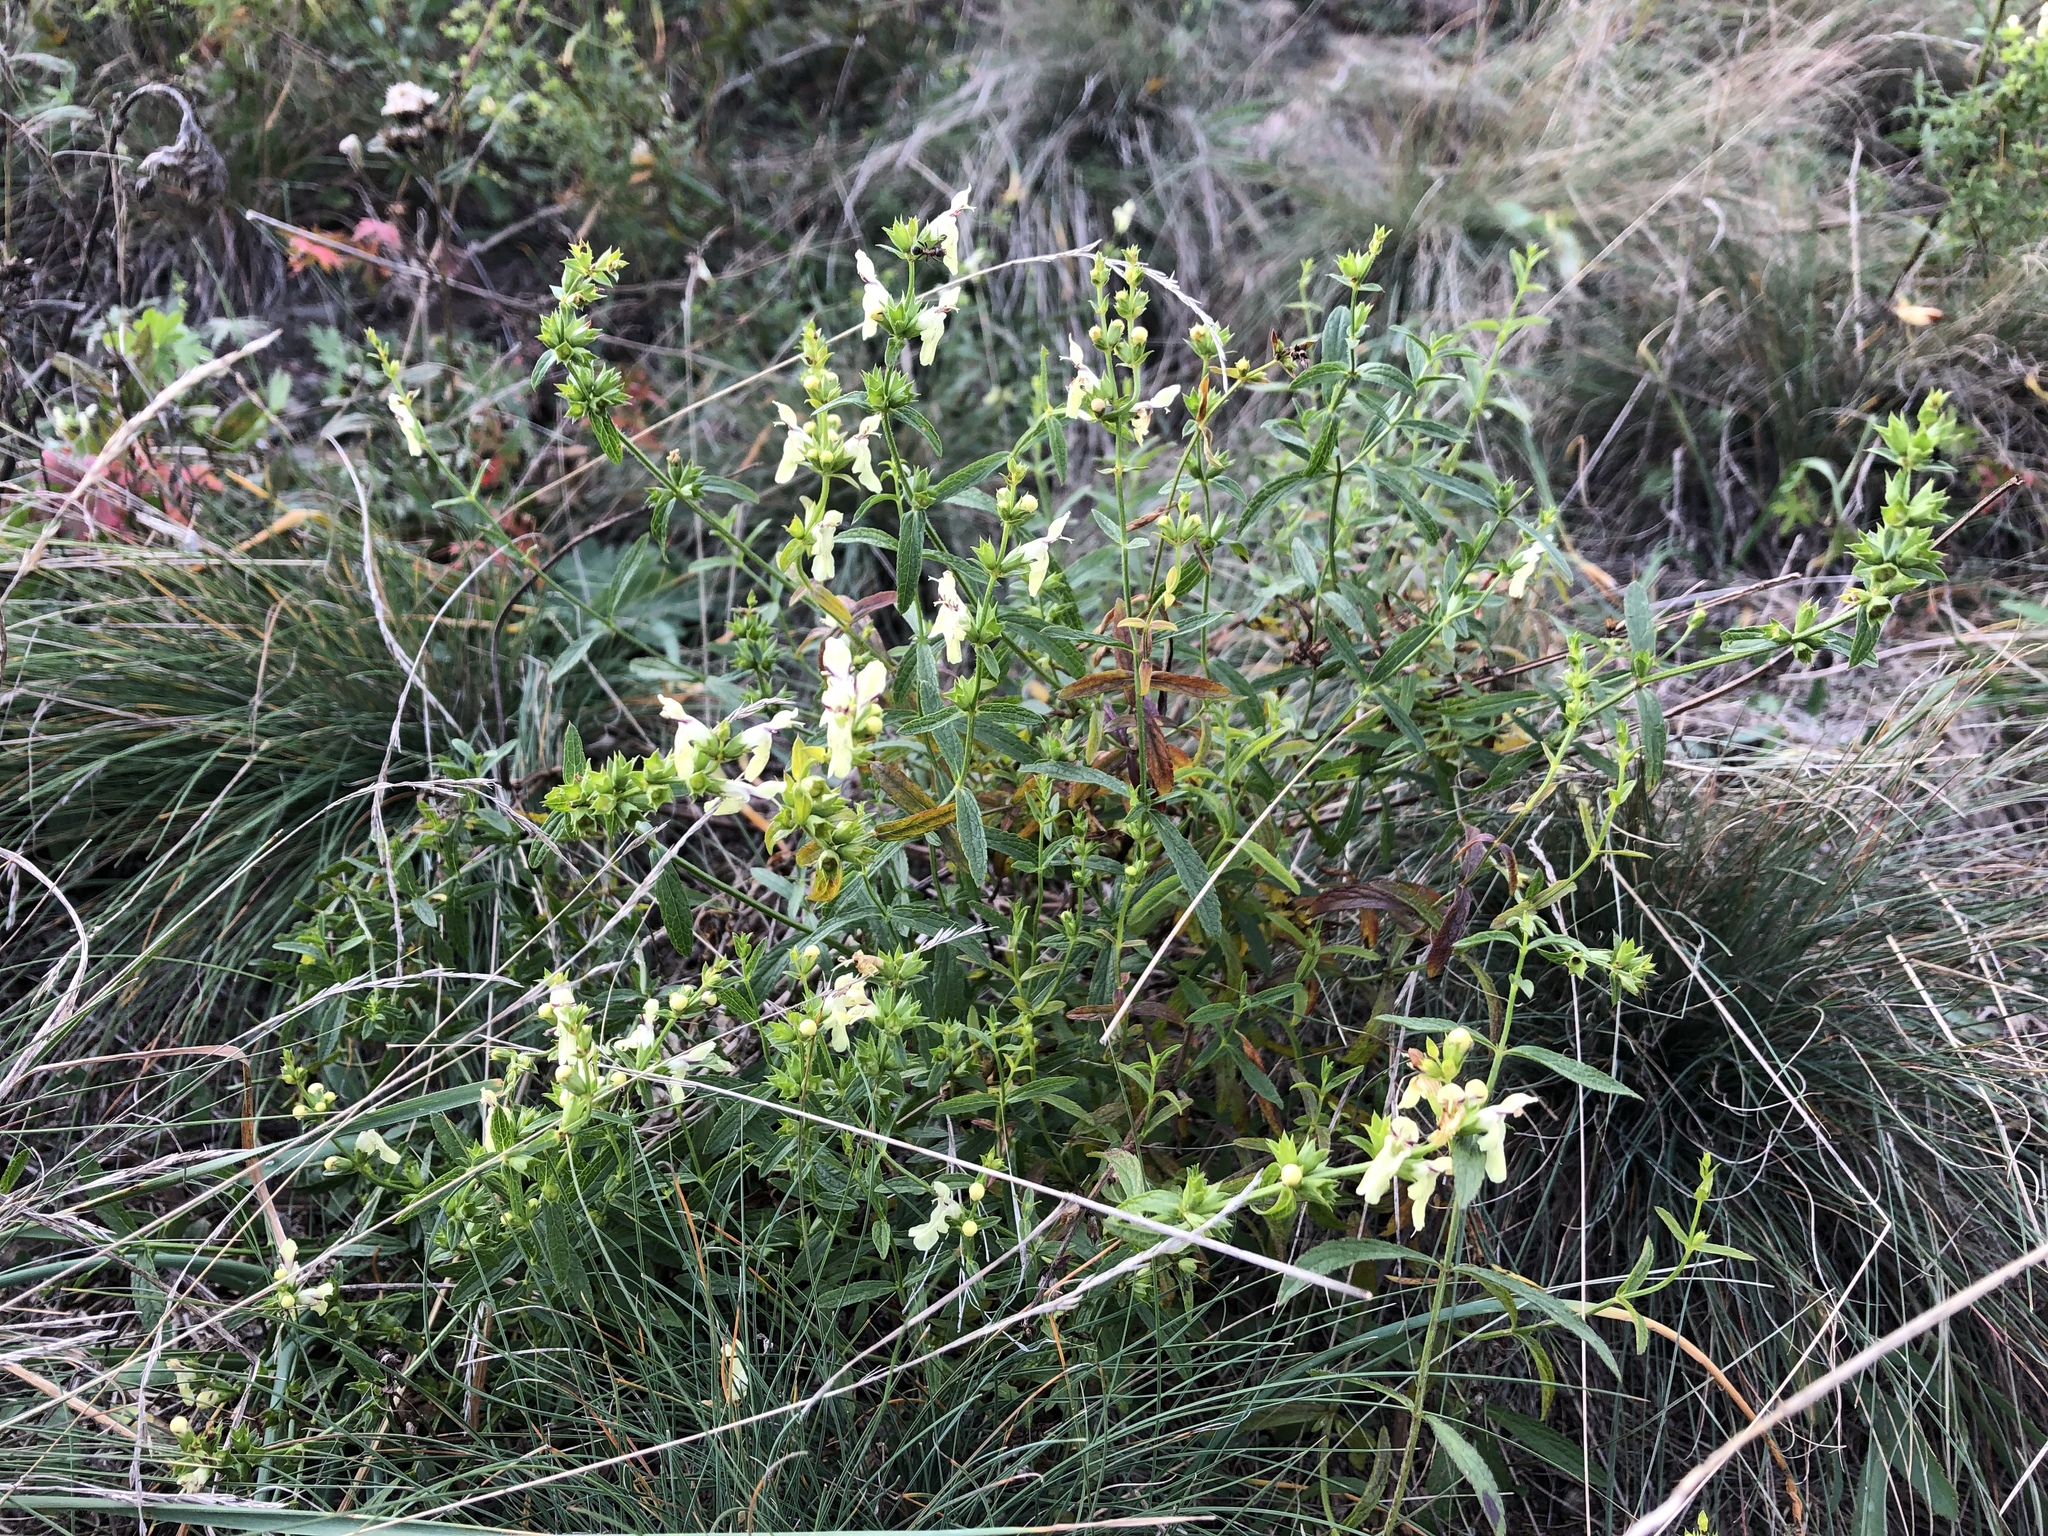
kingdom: Plantae
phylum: Tracheophyta
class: Magnoliopsida
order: Lamiales
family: Lamiaceae
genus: Stachys
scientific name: Stachys recta
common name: Perennial yellow-woundwort
